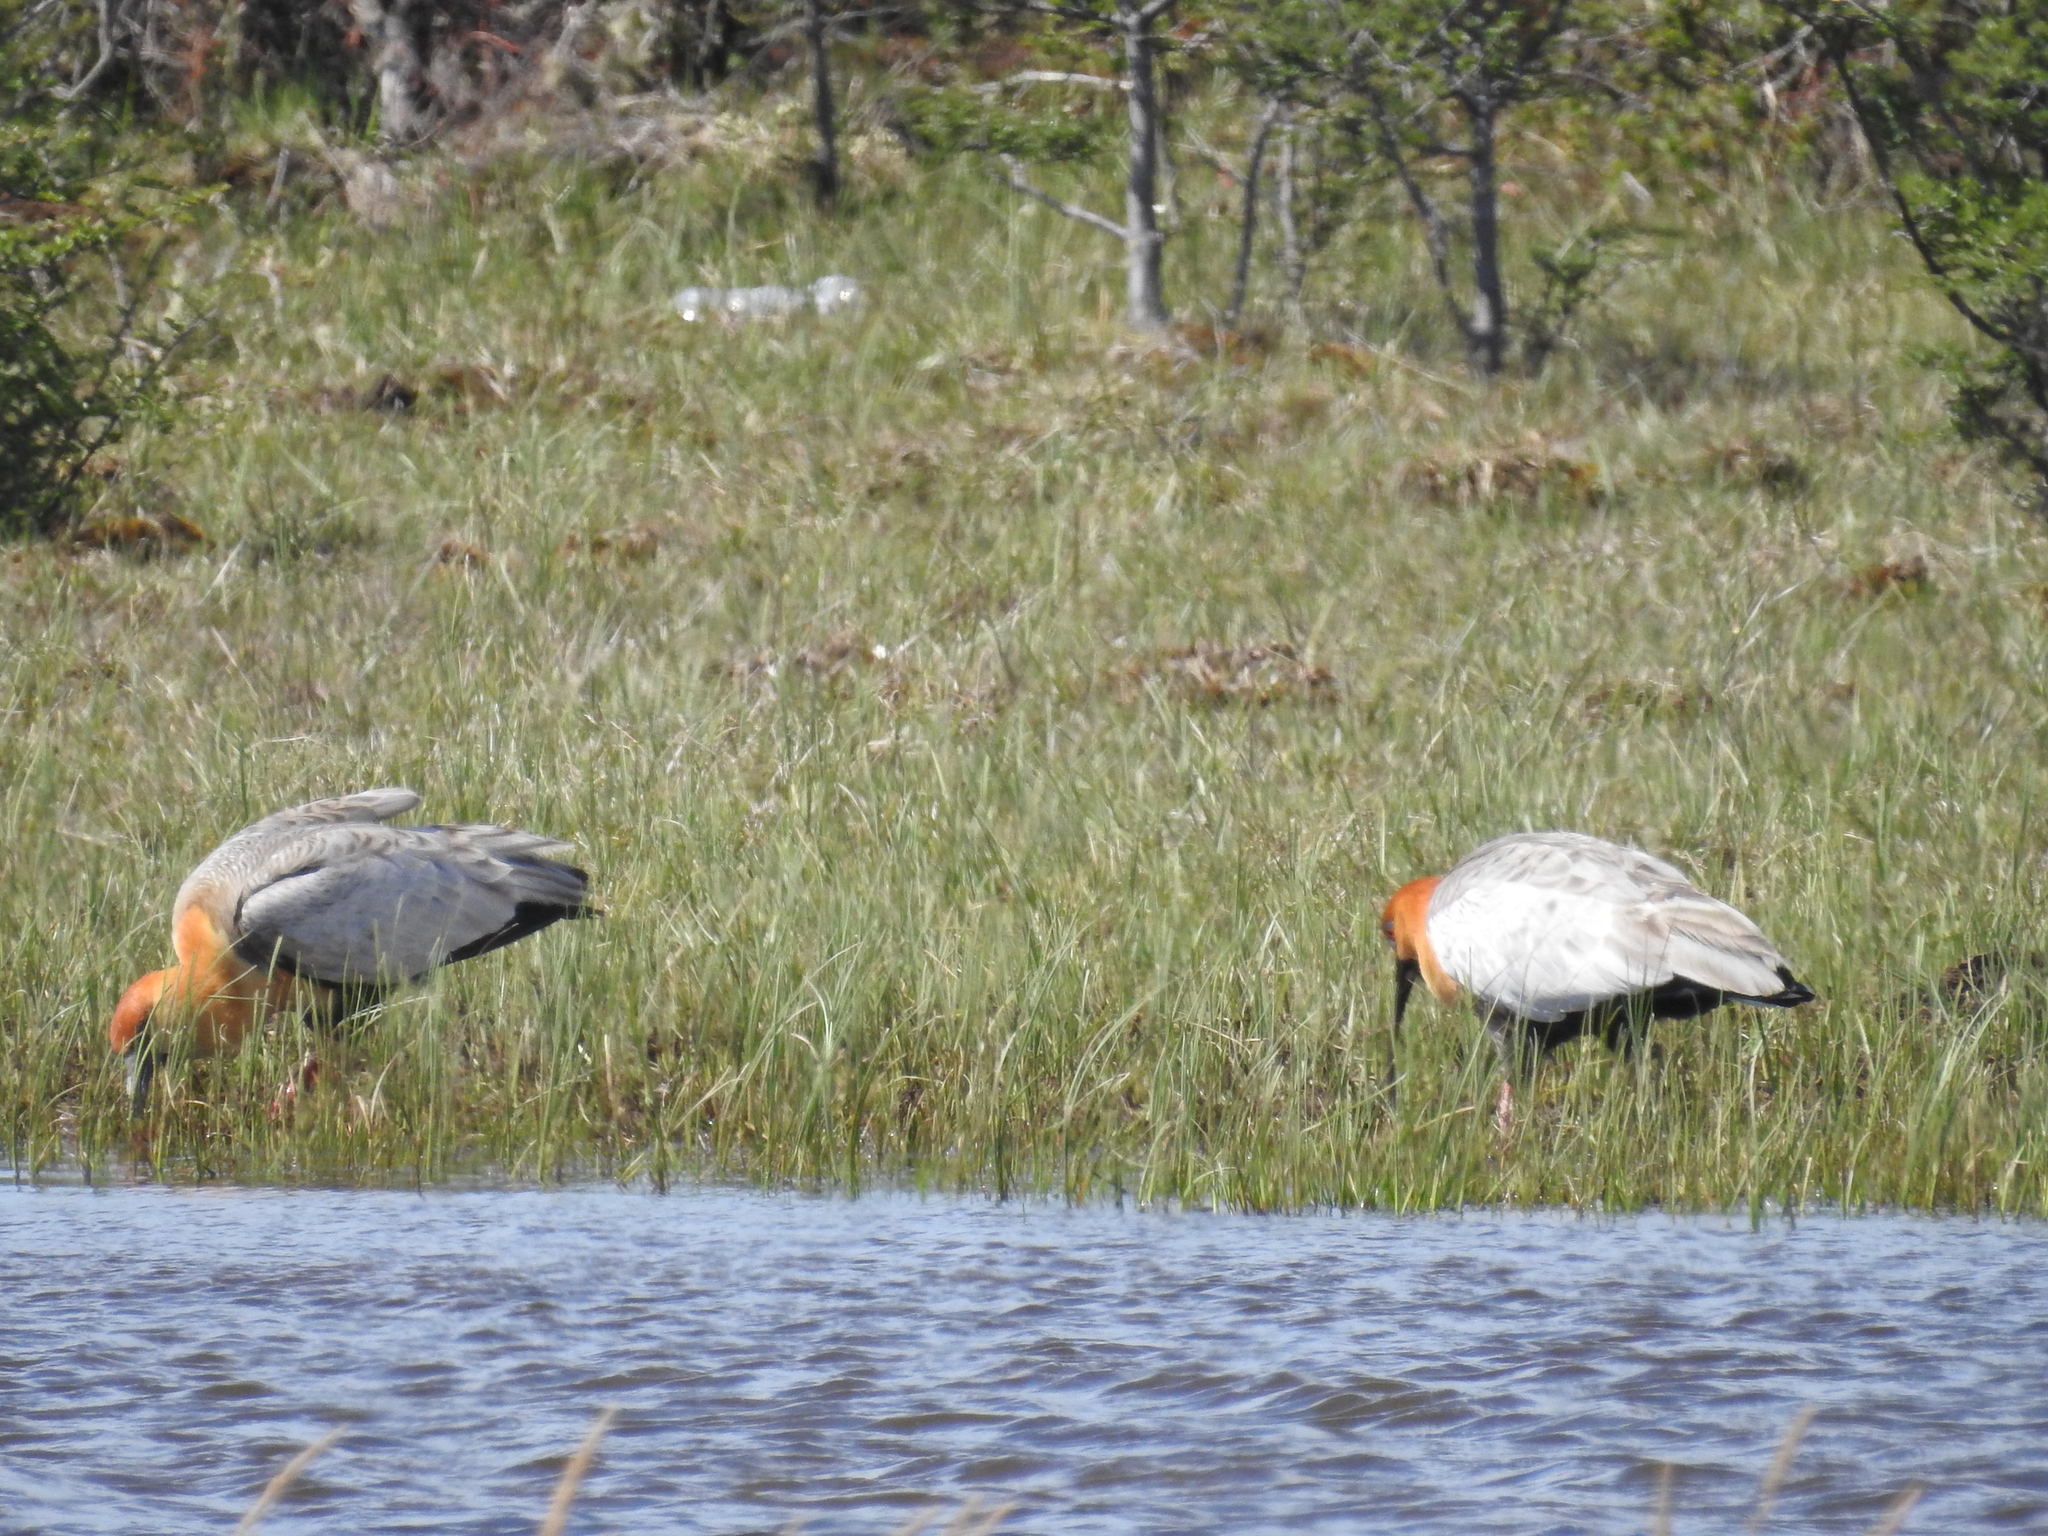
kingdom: Animalia
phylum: Chordata
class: Aves
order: Pelecaniformes
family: Threskiornithidae
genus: Theristicus
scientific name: Theristicus melanopis
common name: Black-faced ibis
